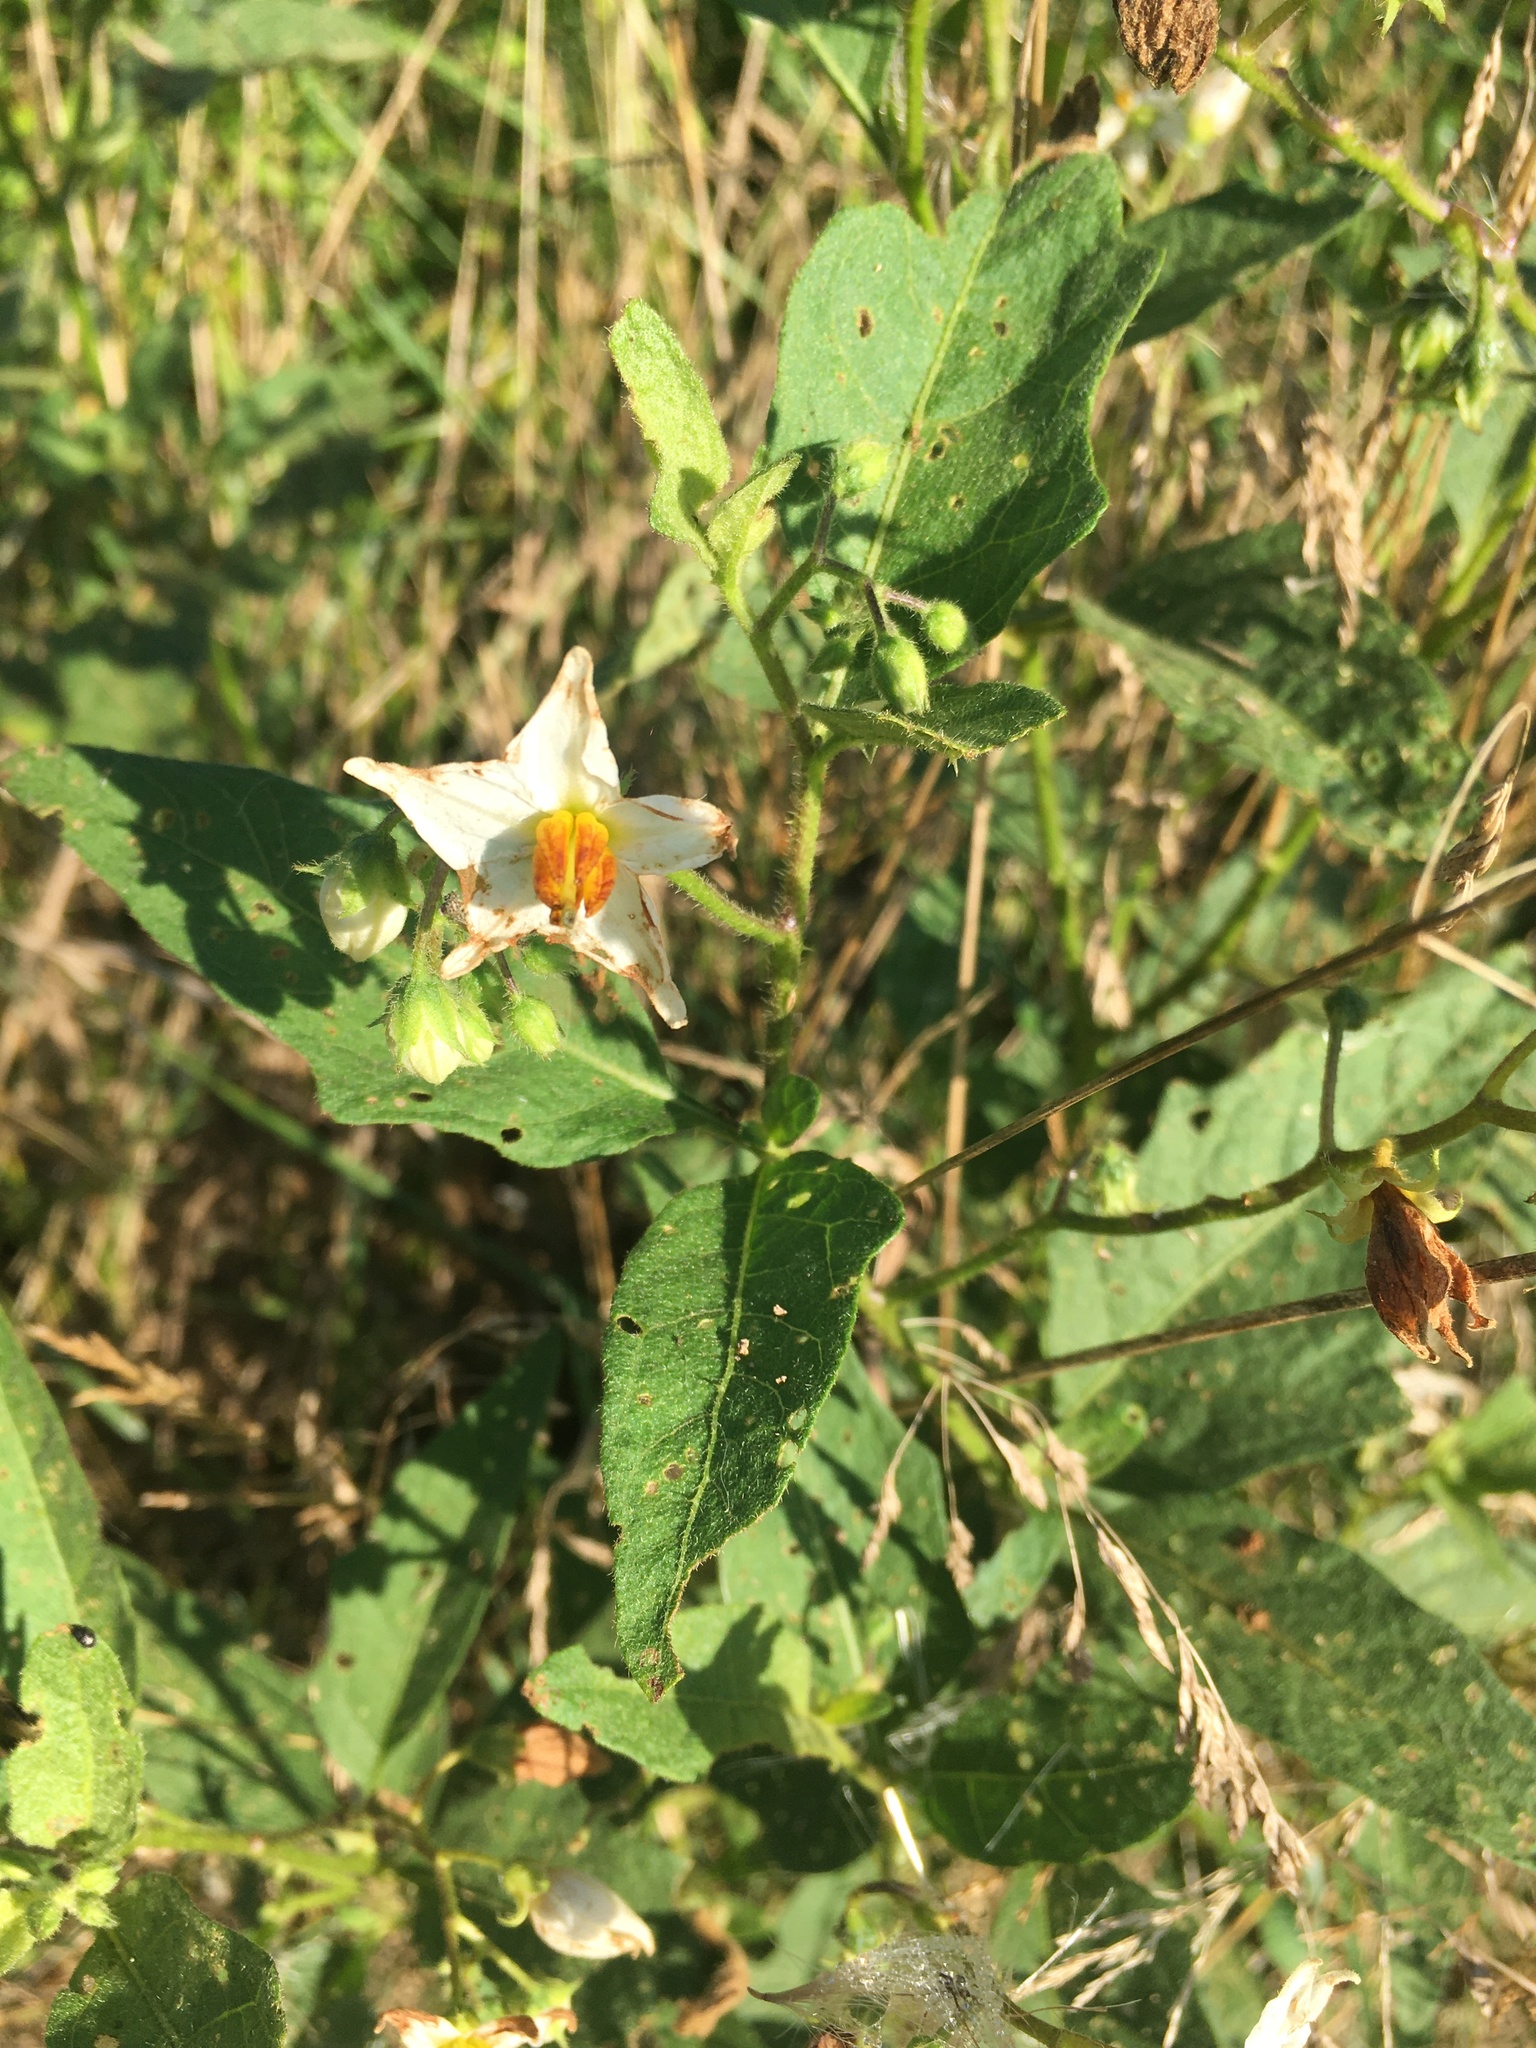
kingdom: Plantae
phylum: Tracheophyta
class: Magnoliopsida
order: Solanales
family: Solanaceae
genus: Solanum
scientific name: Solanum carolinense
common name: Horse-nettle
